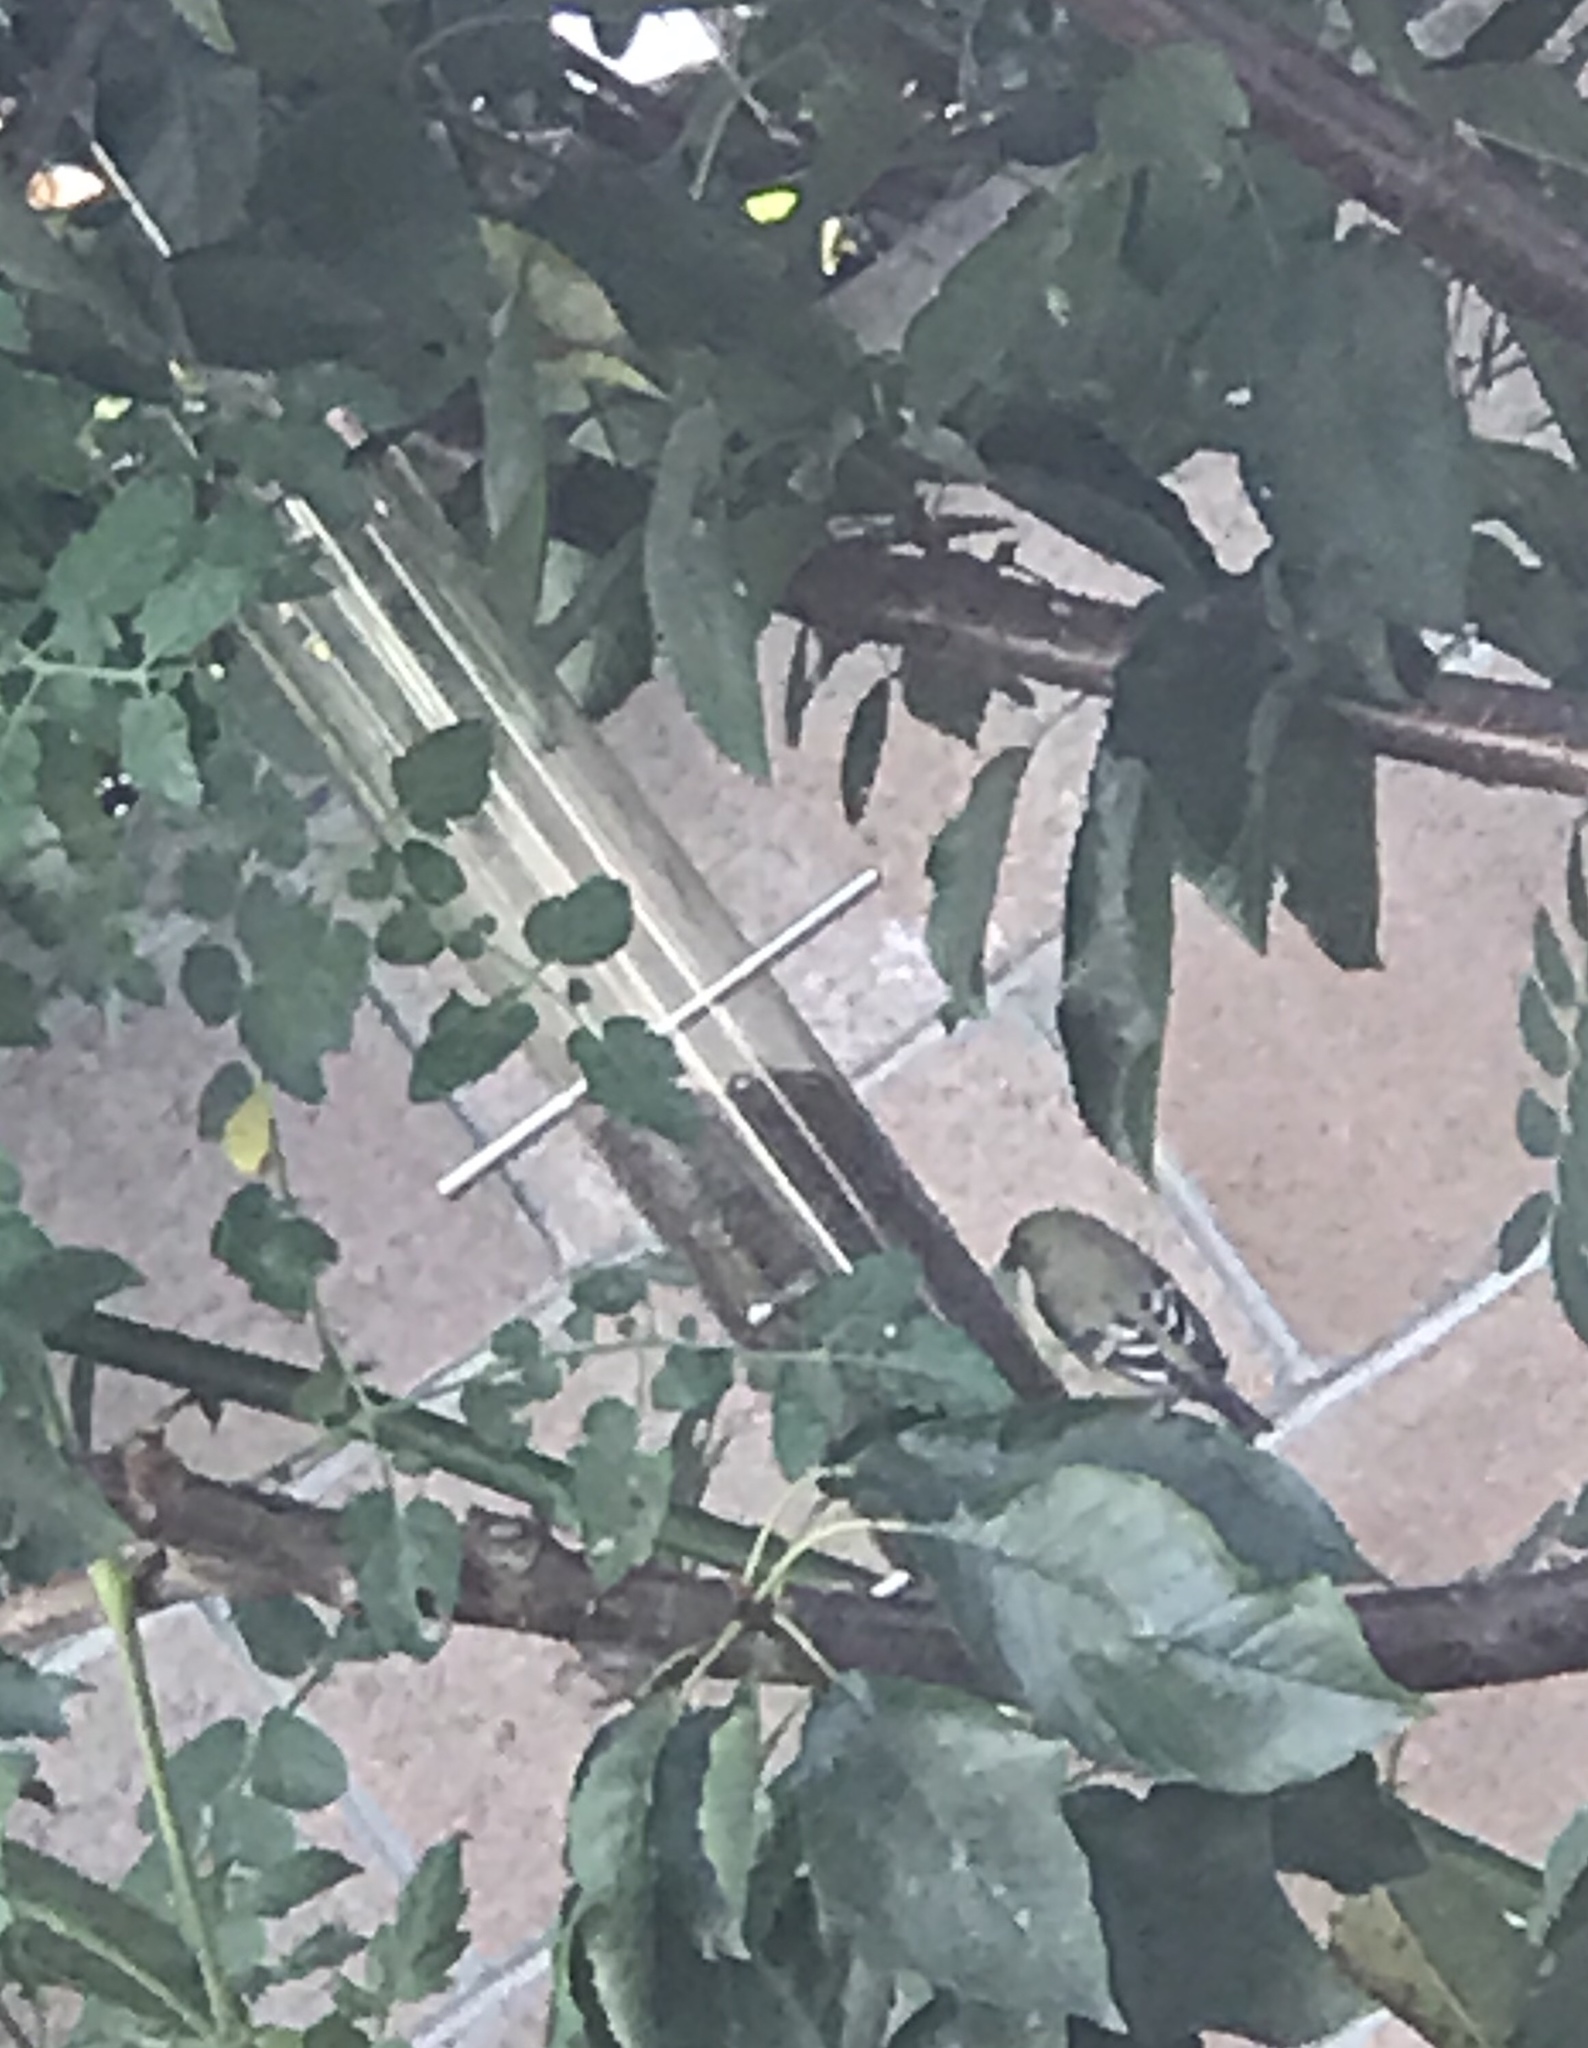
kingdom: Animalia
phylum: Chordata
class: Aves
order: Passeriformes
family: Fringillidae
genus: Spinus
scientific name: Spinus psaltria
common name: Lesser goldfinch
